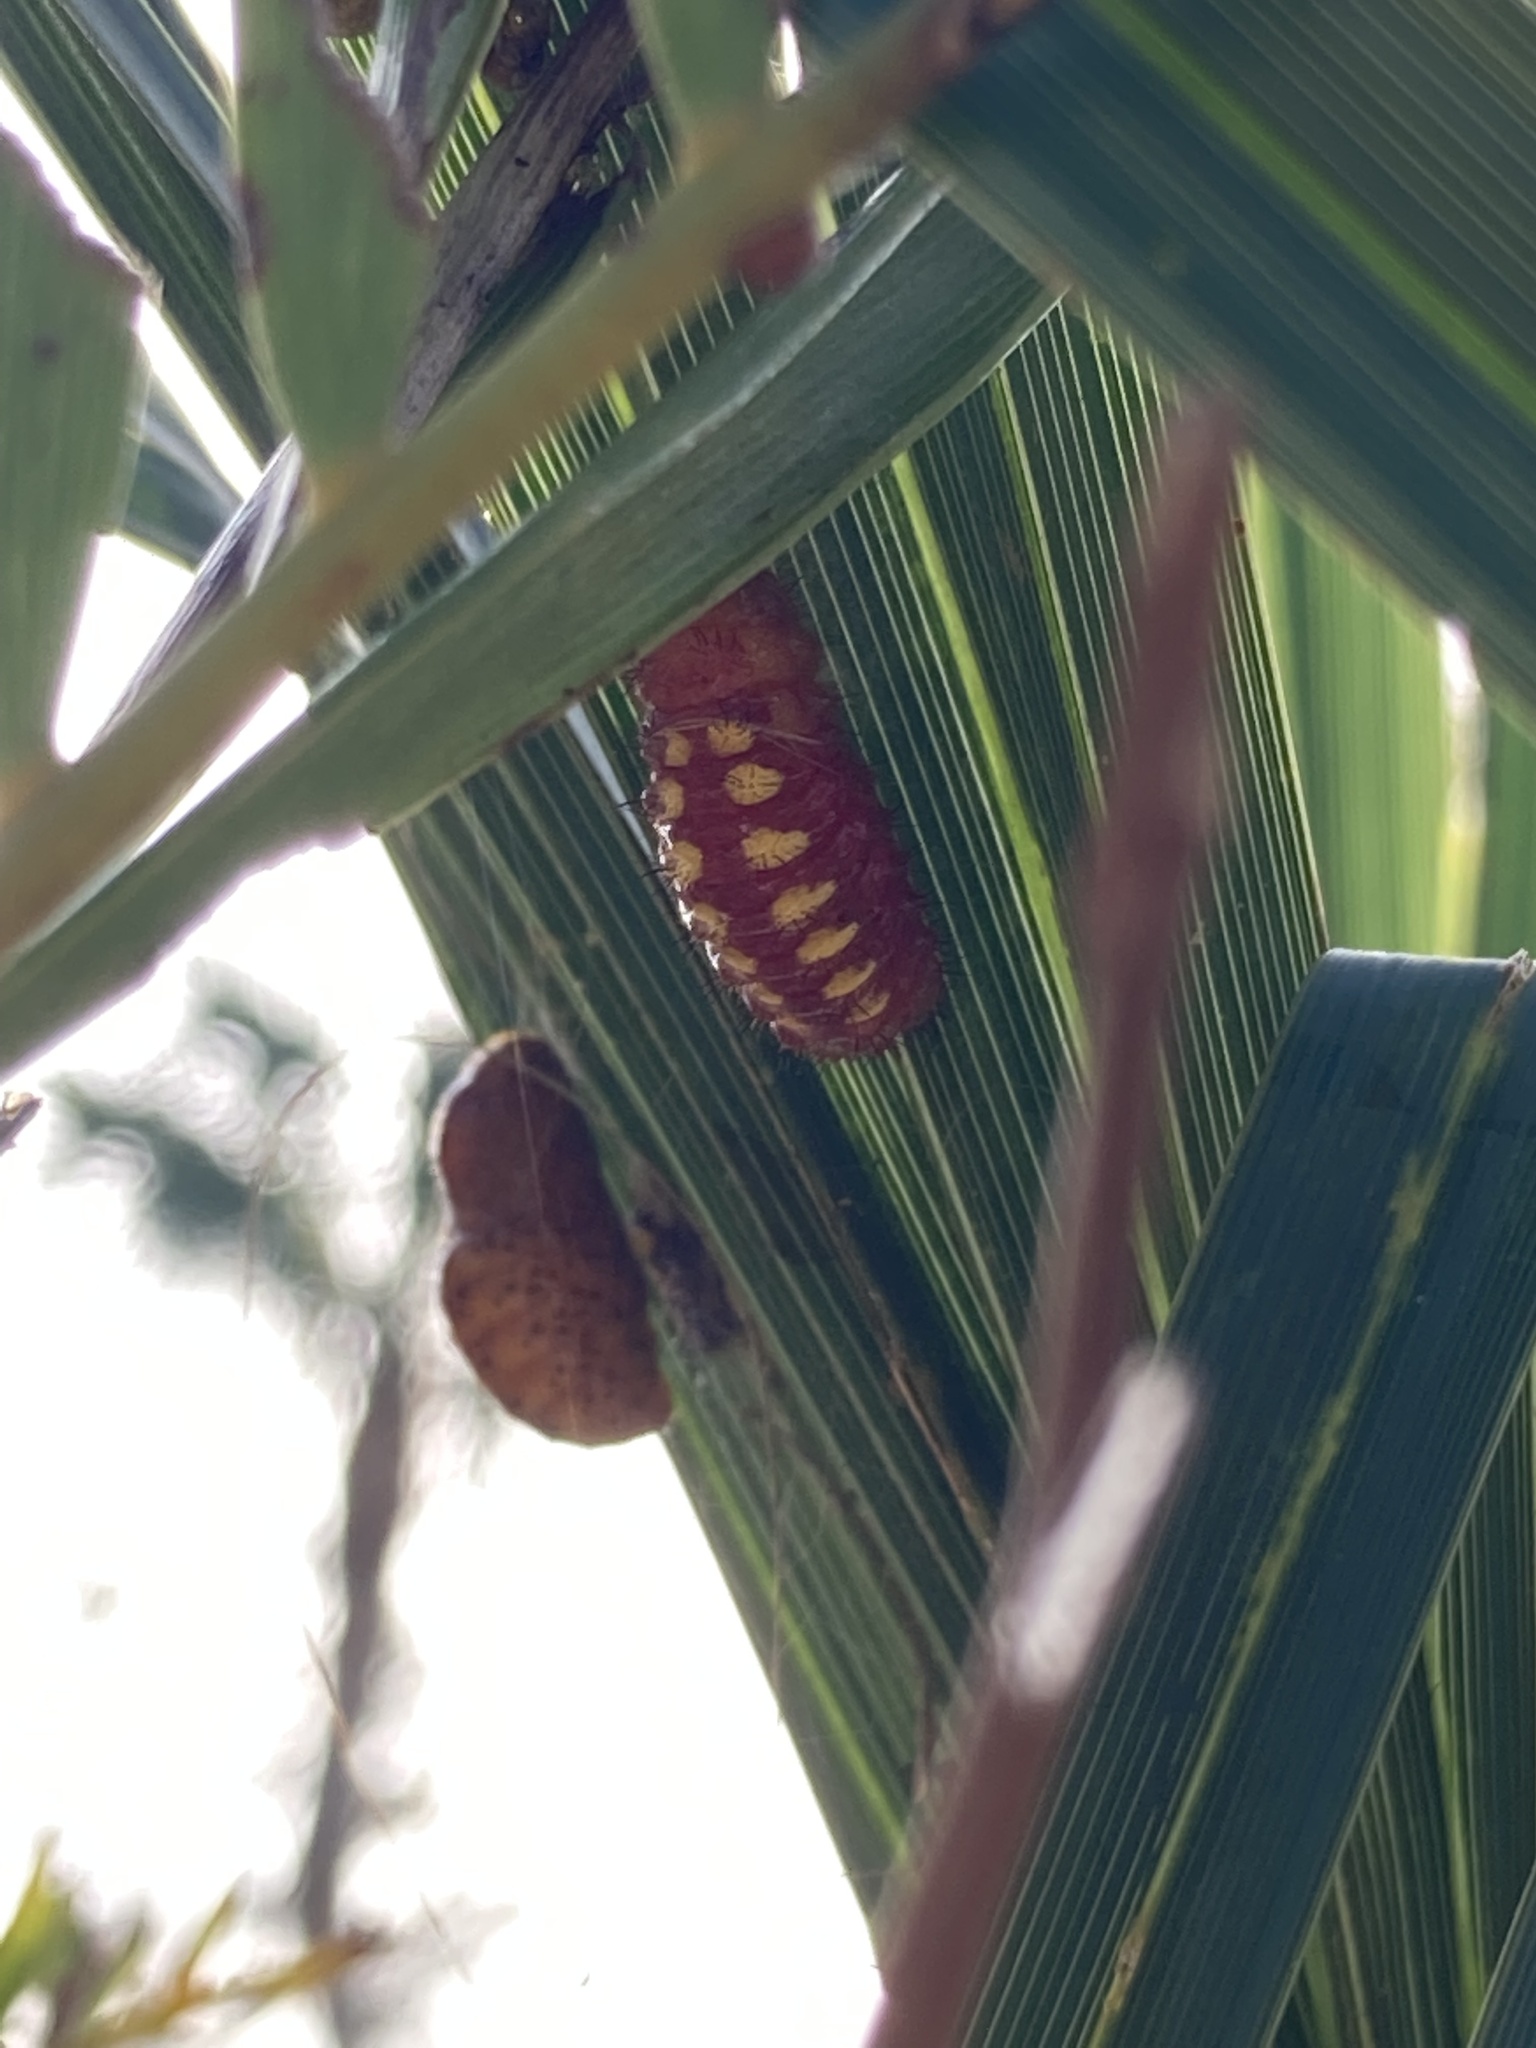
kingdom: Animalia
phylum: Arthropoda
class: Insecta
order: Lepidoptera
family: Lycaenidae
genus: Eumaeus
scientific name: Eumaeus atala
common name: Atala
